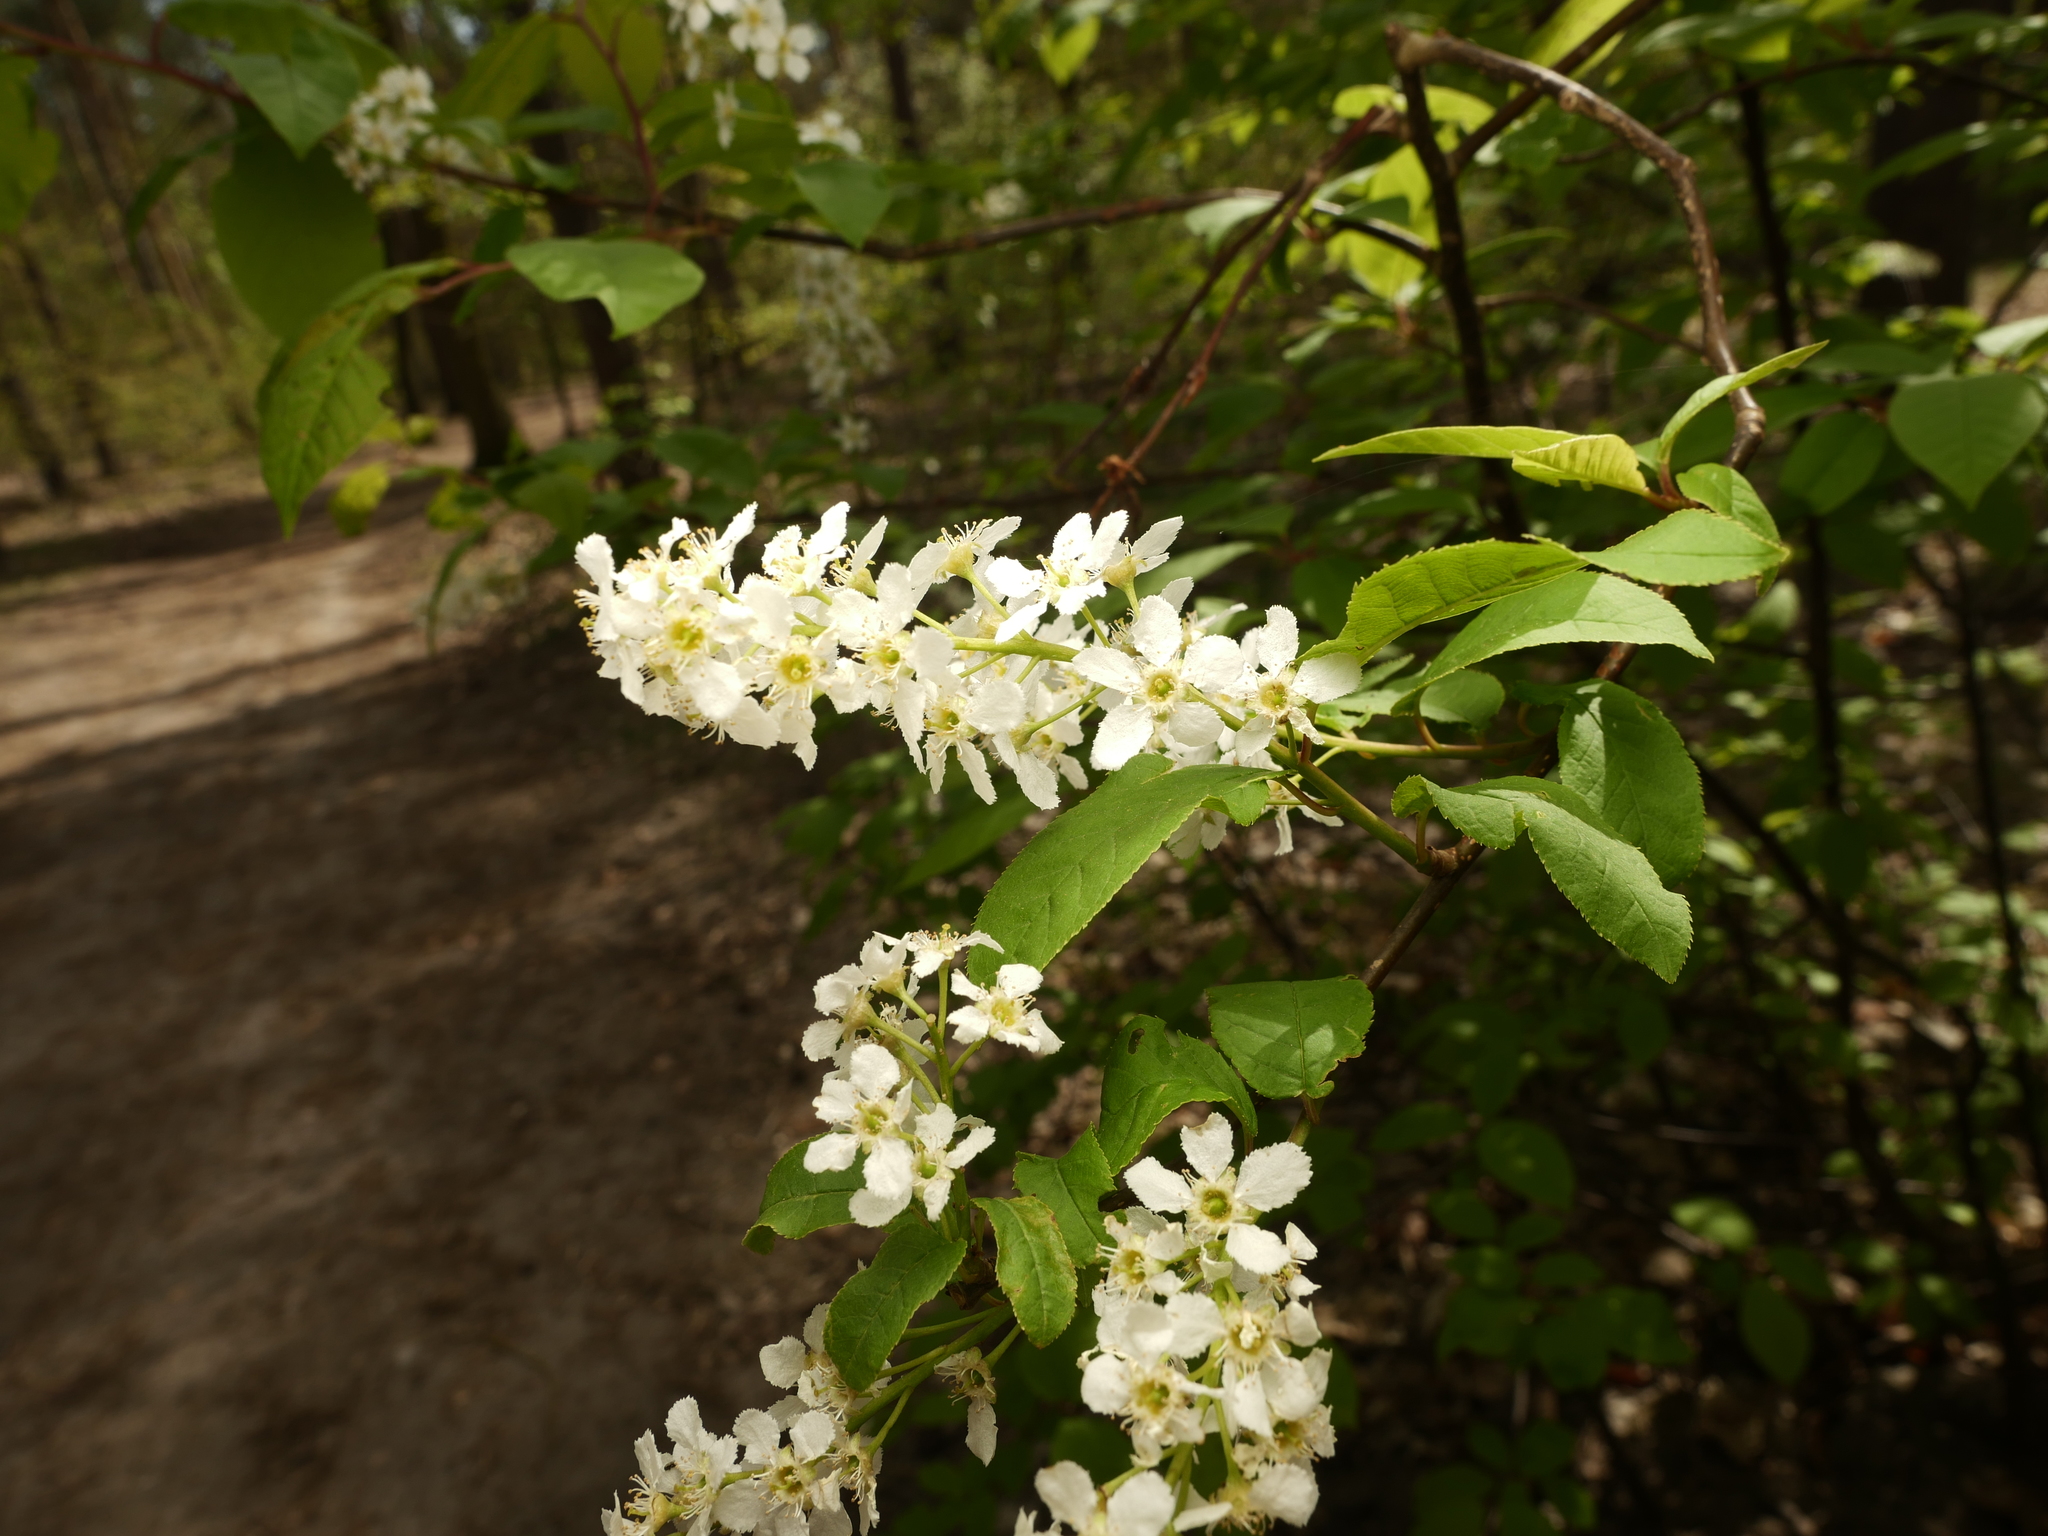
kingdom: Plantae
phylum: Tracheophyta
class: Magnoliopsida
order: Rosales
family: Rosaceae
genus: Prunus
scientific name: Prunus padus
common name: Bird cherry
